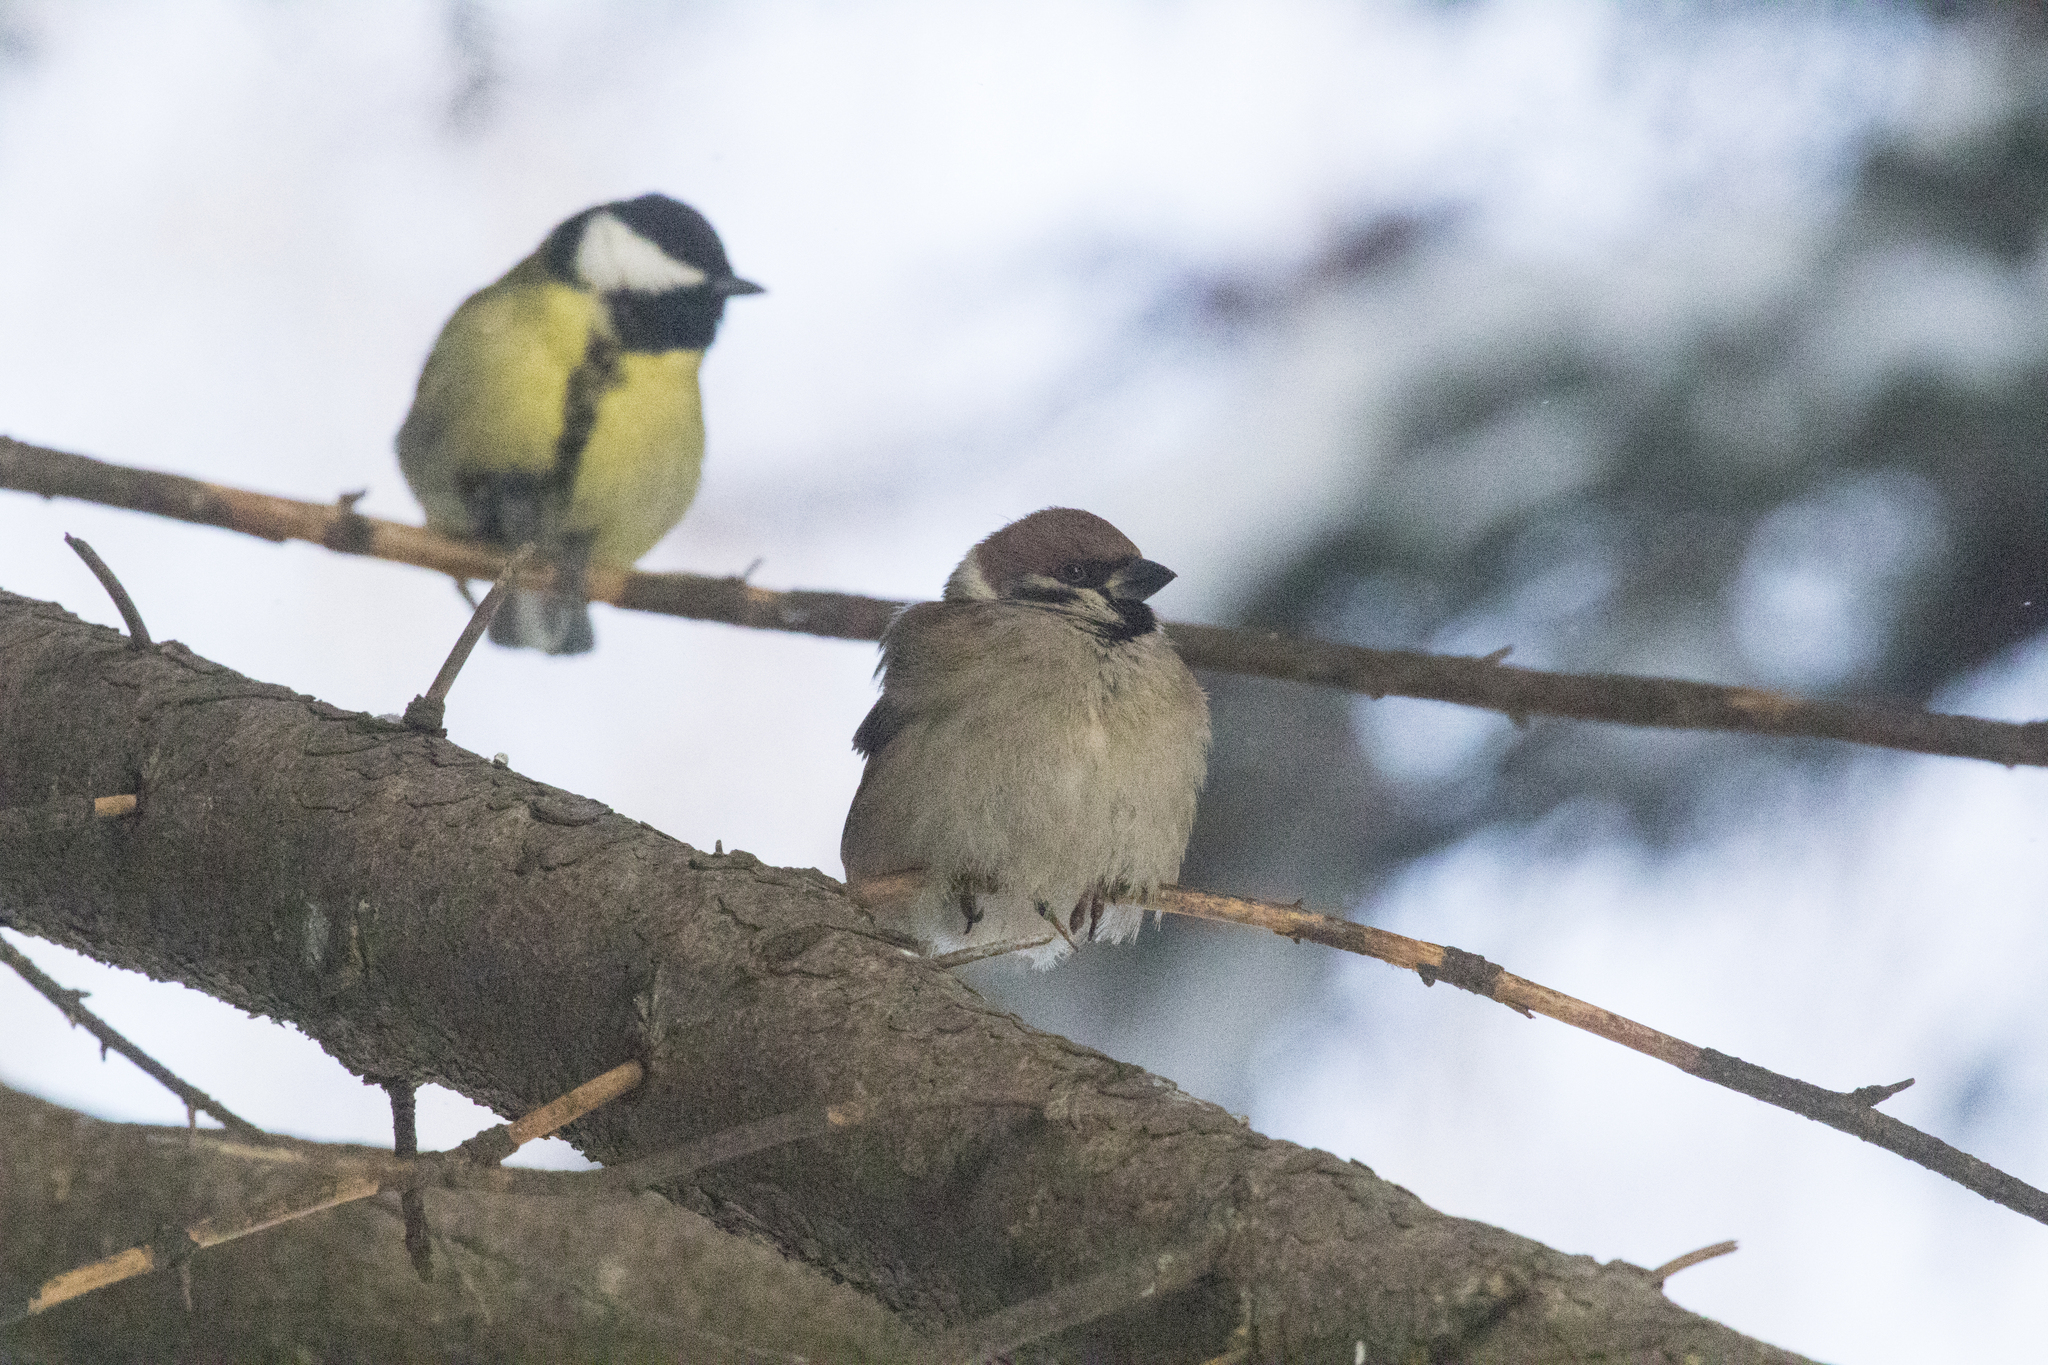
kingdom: Animalia
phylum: Chordata
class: Aves
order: Passeriformes
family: Passeridae
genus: Passer
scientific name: Passer montanus
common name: Eurasian tree sparrow
